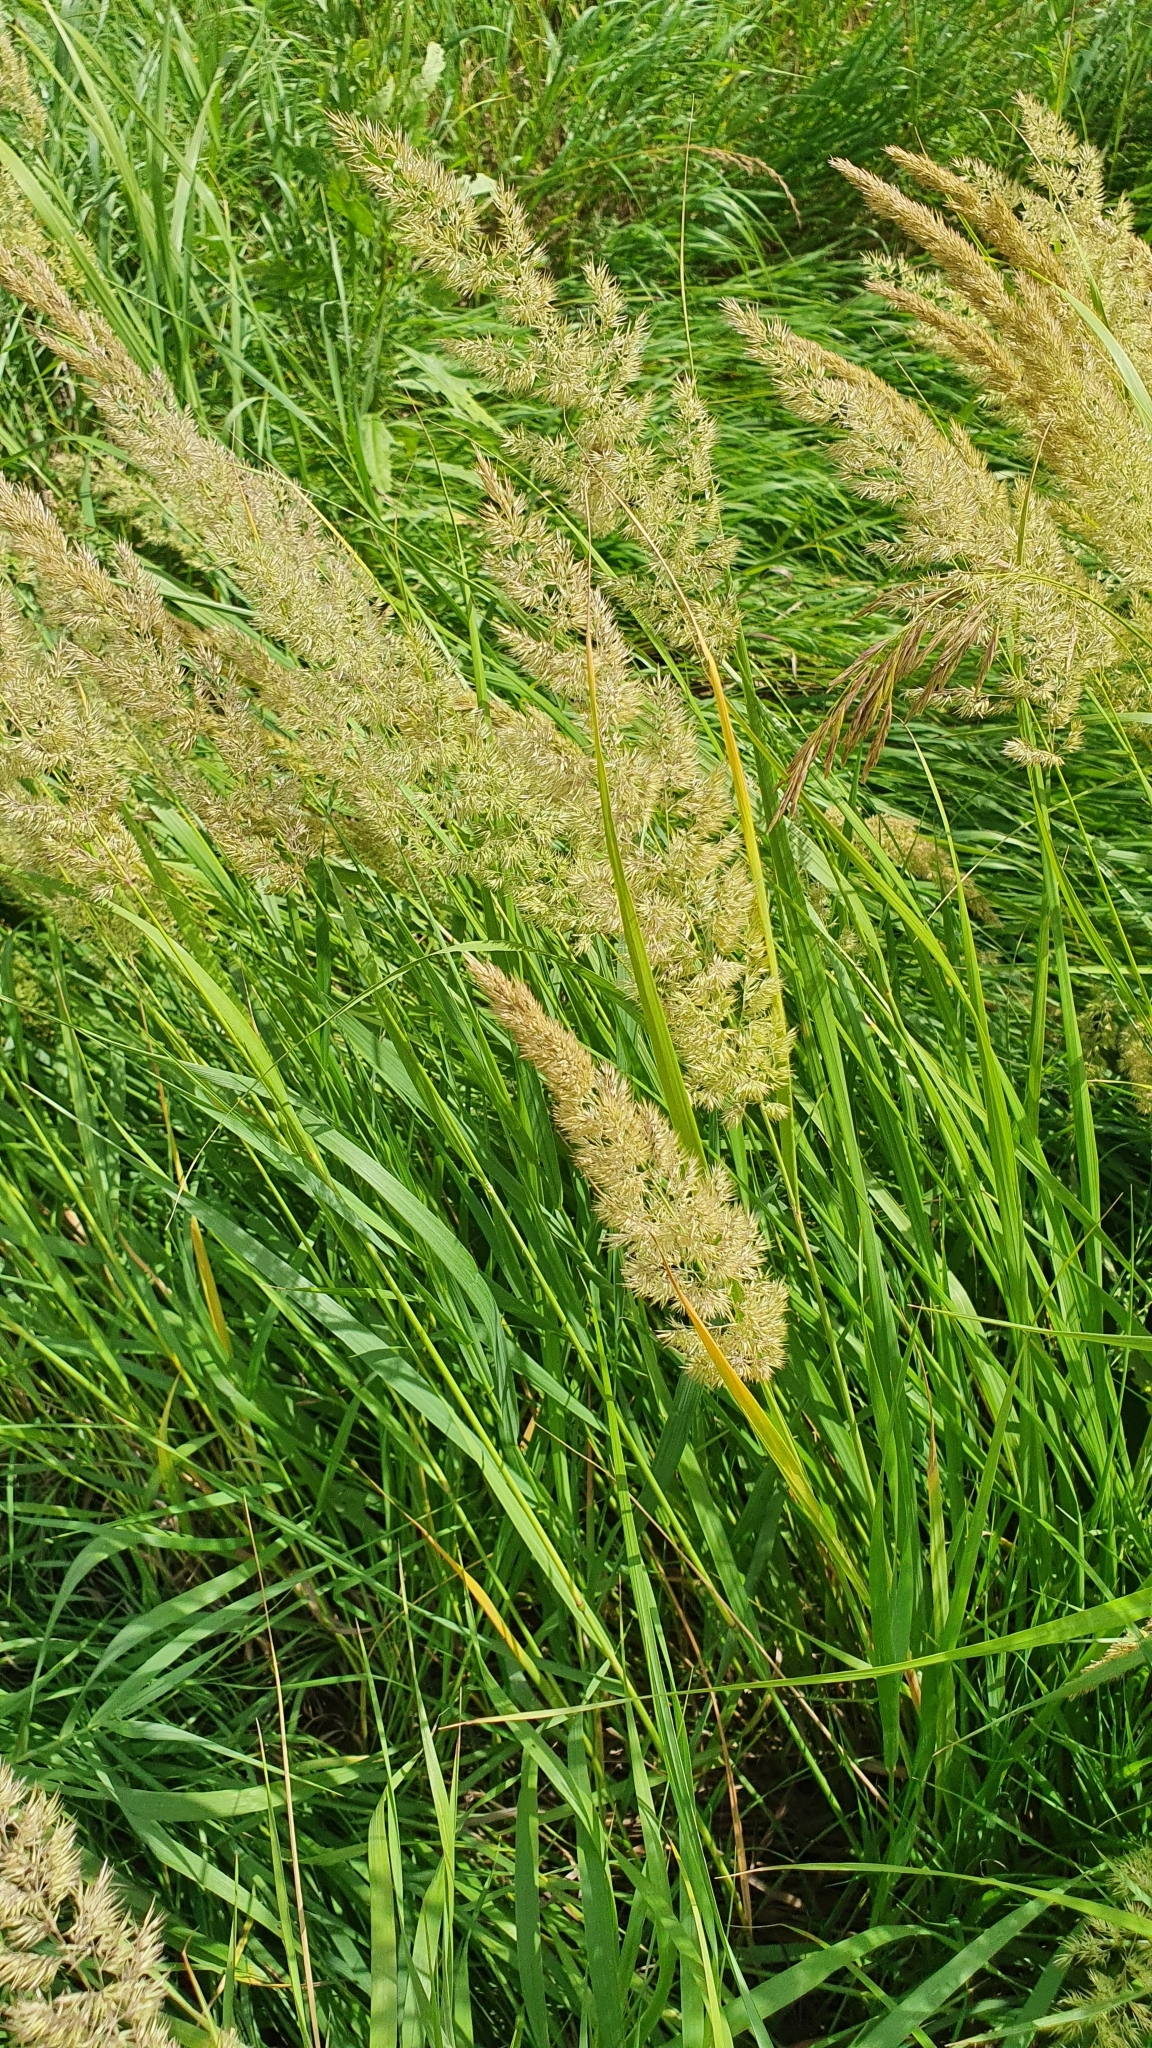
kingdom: Plantae
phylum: Tracheophyta
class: Liliopsida
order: Poales
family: Poaceae
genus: Calamagrostis
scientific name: Calamagrostis epigejos
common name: Wood small-reed
